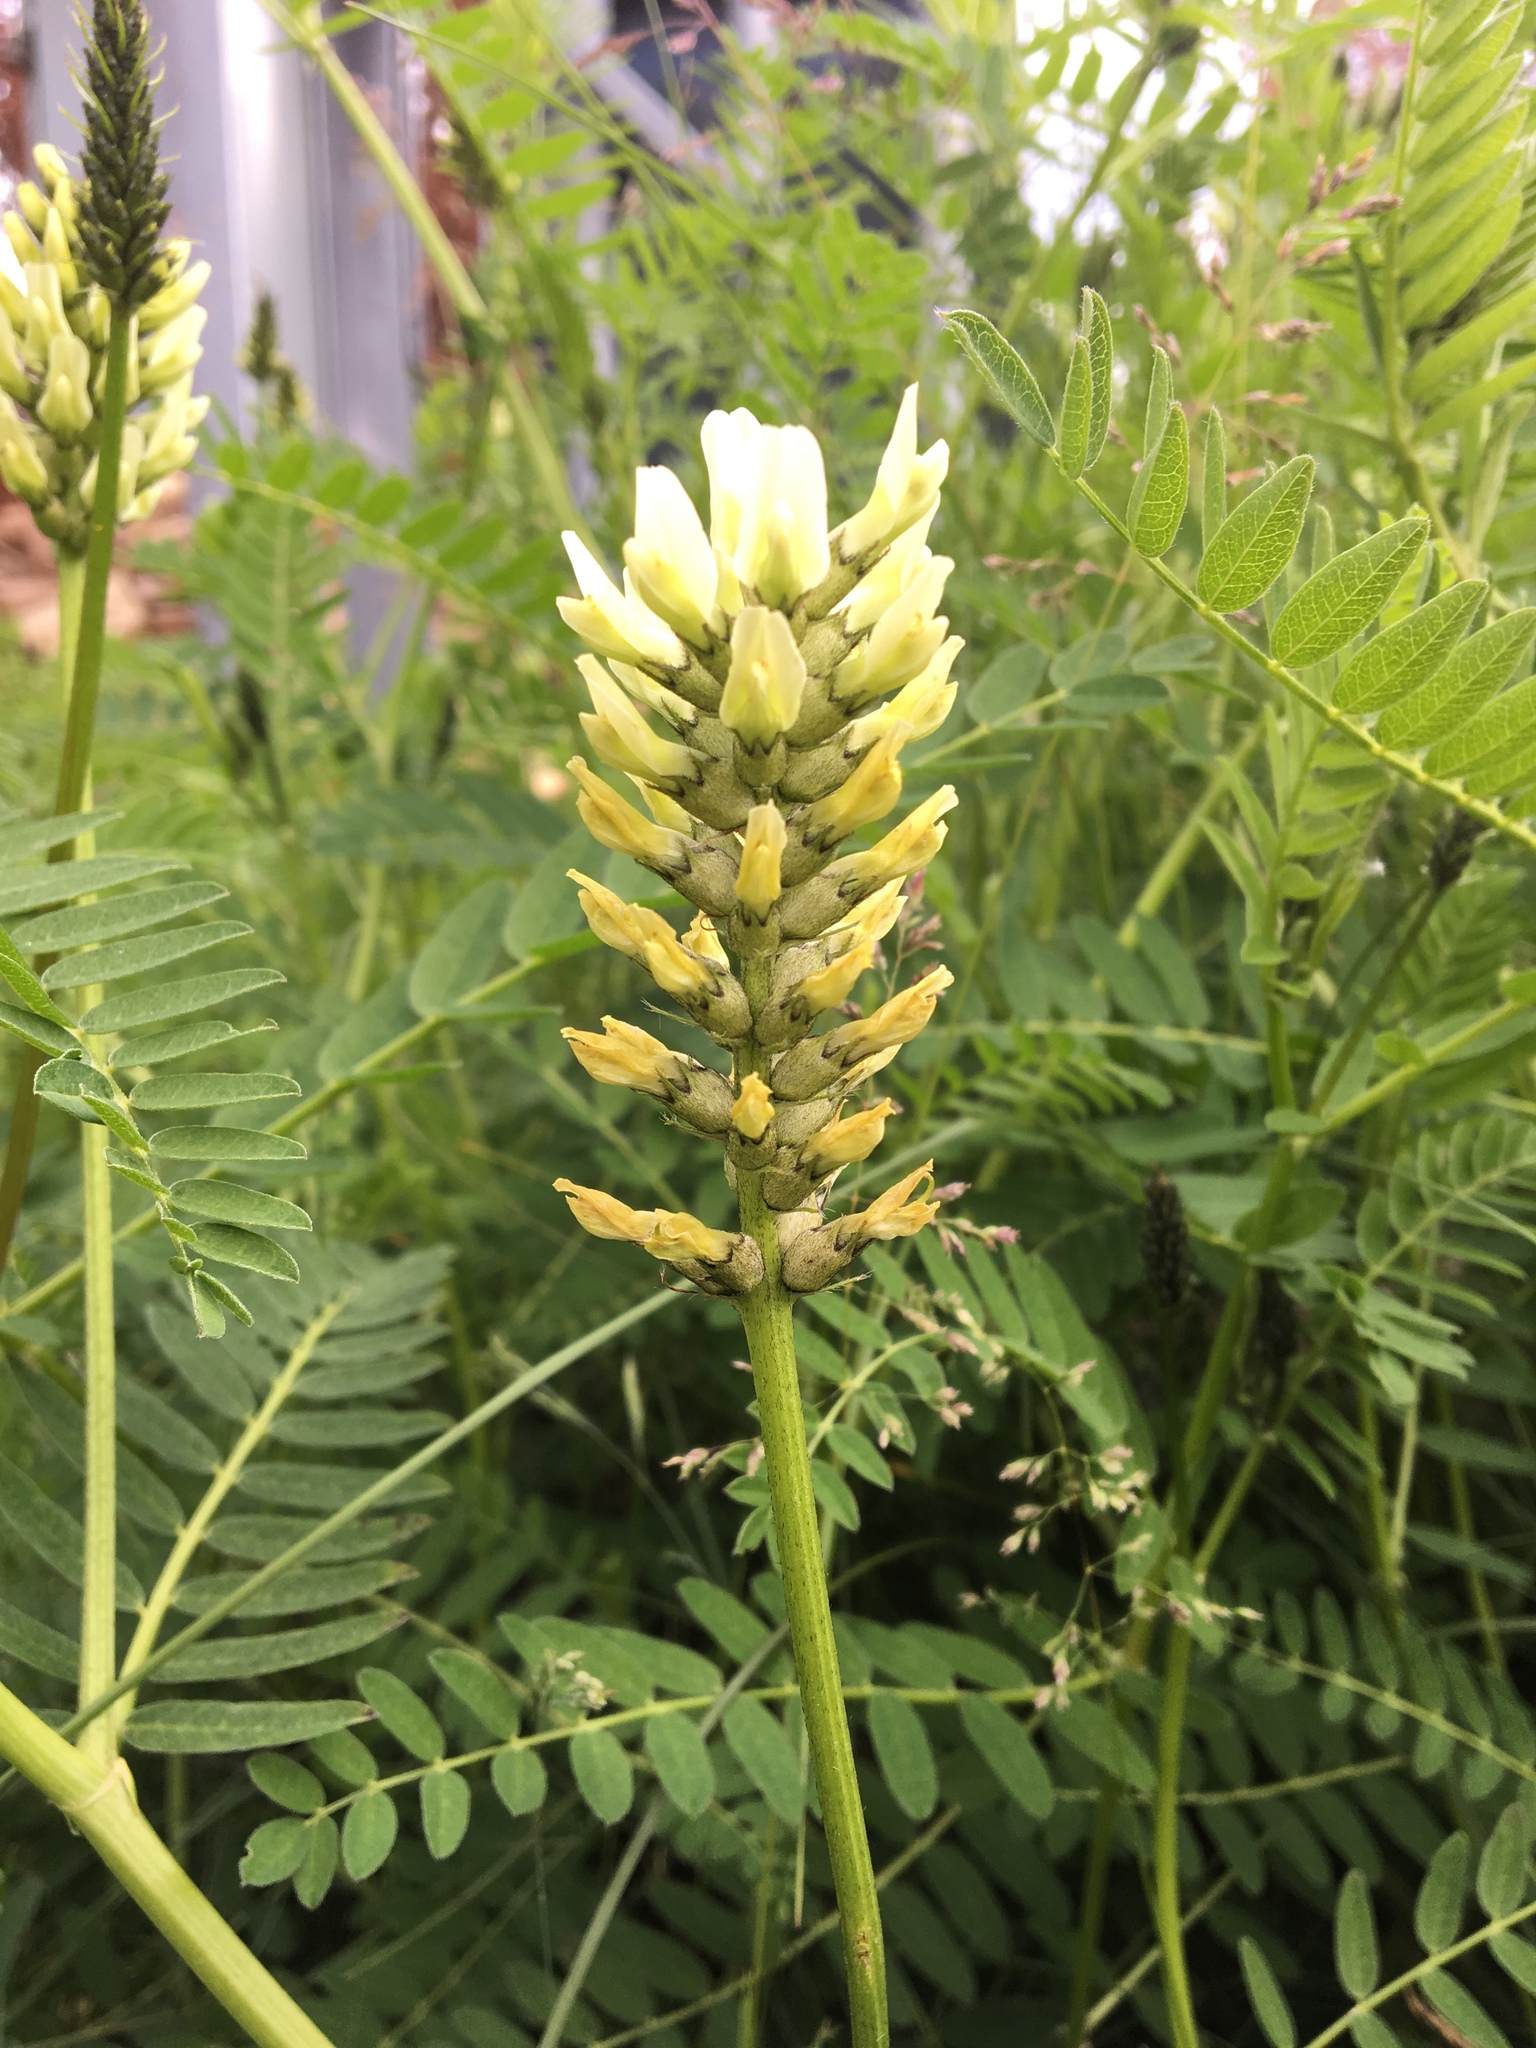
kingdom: Plantae
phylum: Tracheophyta
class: Magnoliopsida
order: Fabales
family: Fabaceae
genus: Astragalus
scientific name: Astragalus cicer
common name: Chick-pea milk-vetch
